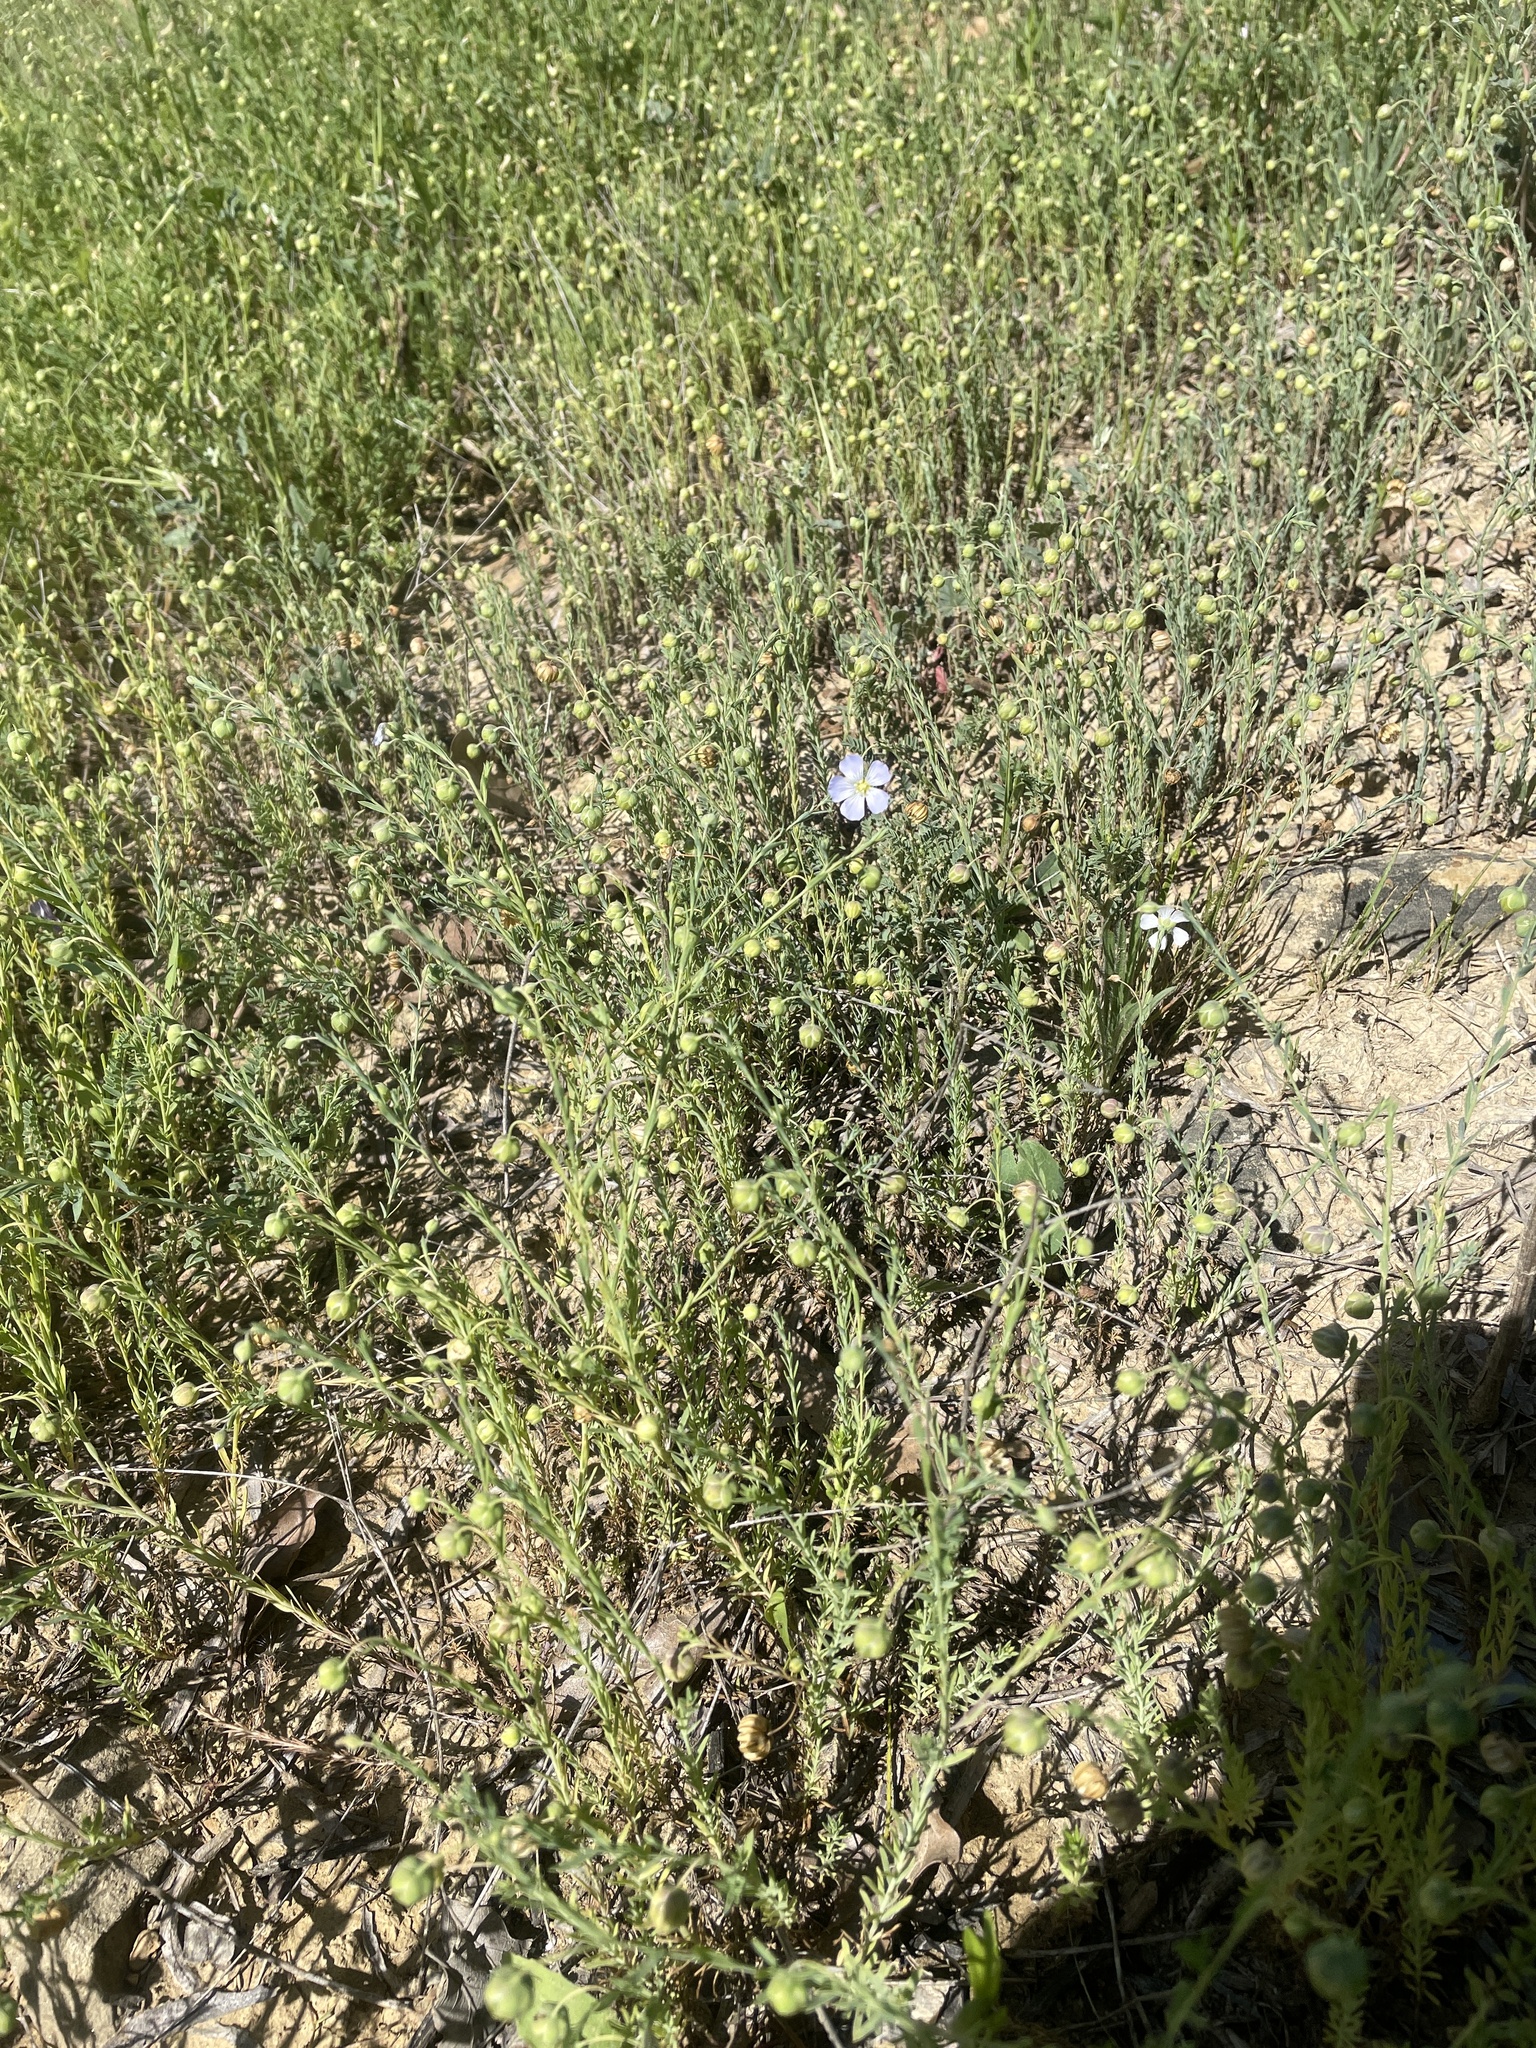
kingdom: Plantae
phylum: Tracheophyta
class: Magnoliopsida
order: Malpighiales
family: Linaceae
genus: Linum
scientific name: Linum pratense
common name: Norton's flax
